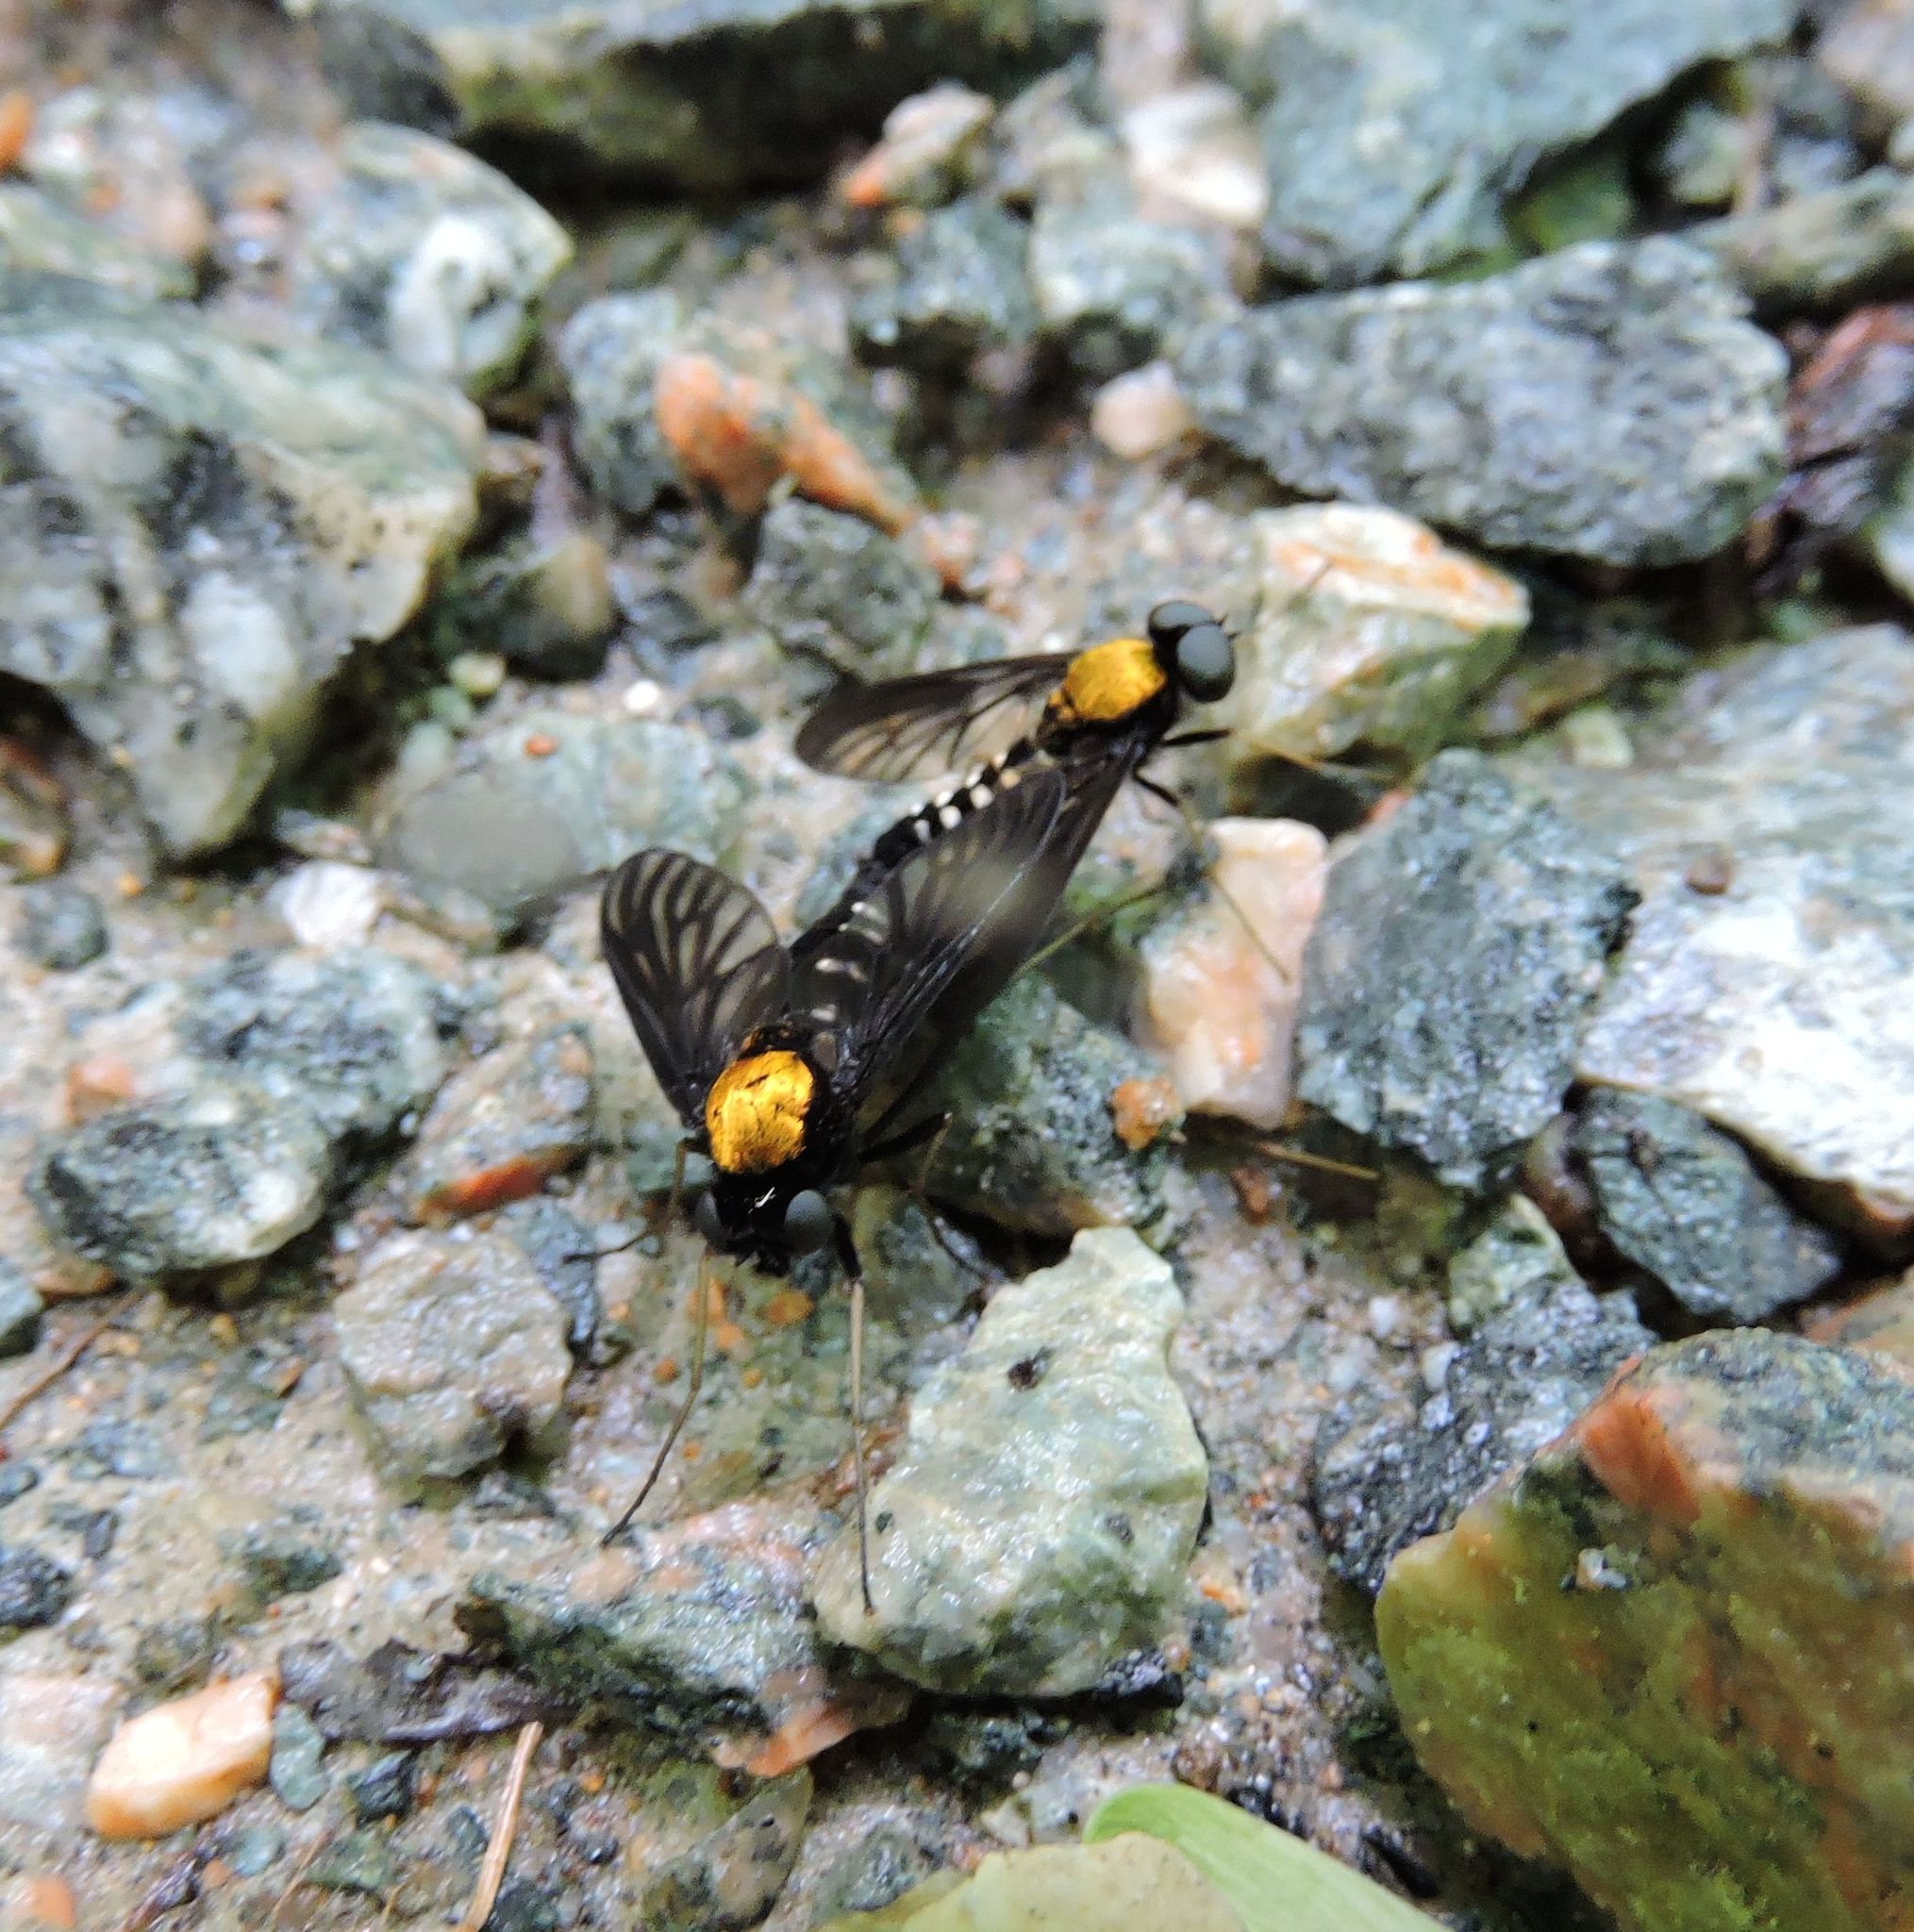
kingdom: Animalia
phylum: Arthropoda
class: Insecta
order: Diptera
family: Rhagionidae
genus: Chrysopilus
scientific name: Chrysopilus thoracicus
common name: Golden-backed snipe fly
